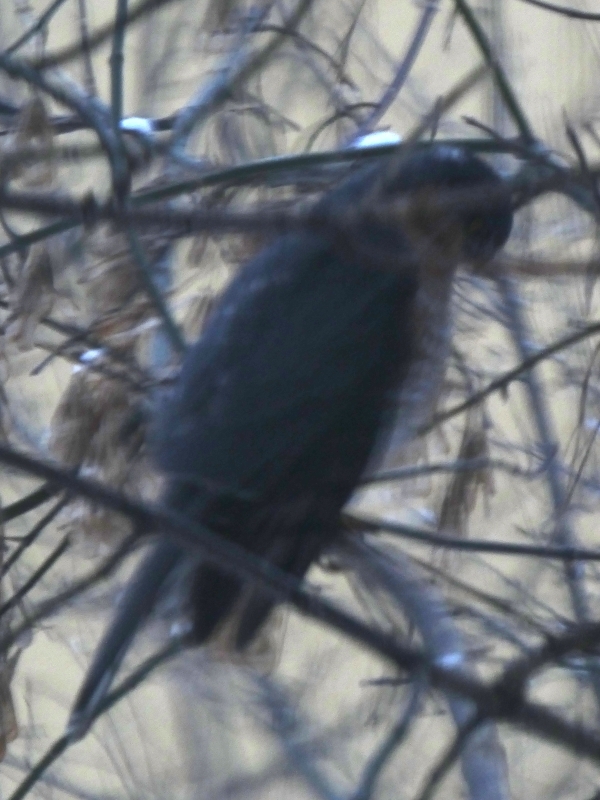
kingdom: Animalia
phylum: Chordata
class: Aves
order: Accipitriformes
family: Accipitridae
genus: Accipiter
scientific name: Accipiter nisus
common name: Eurasian sparrowhawk
